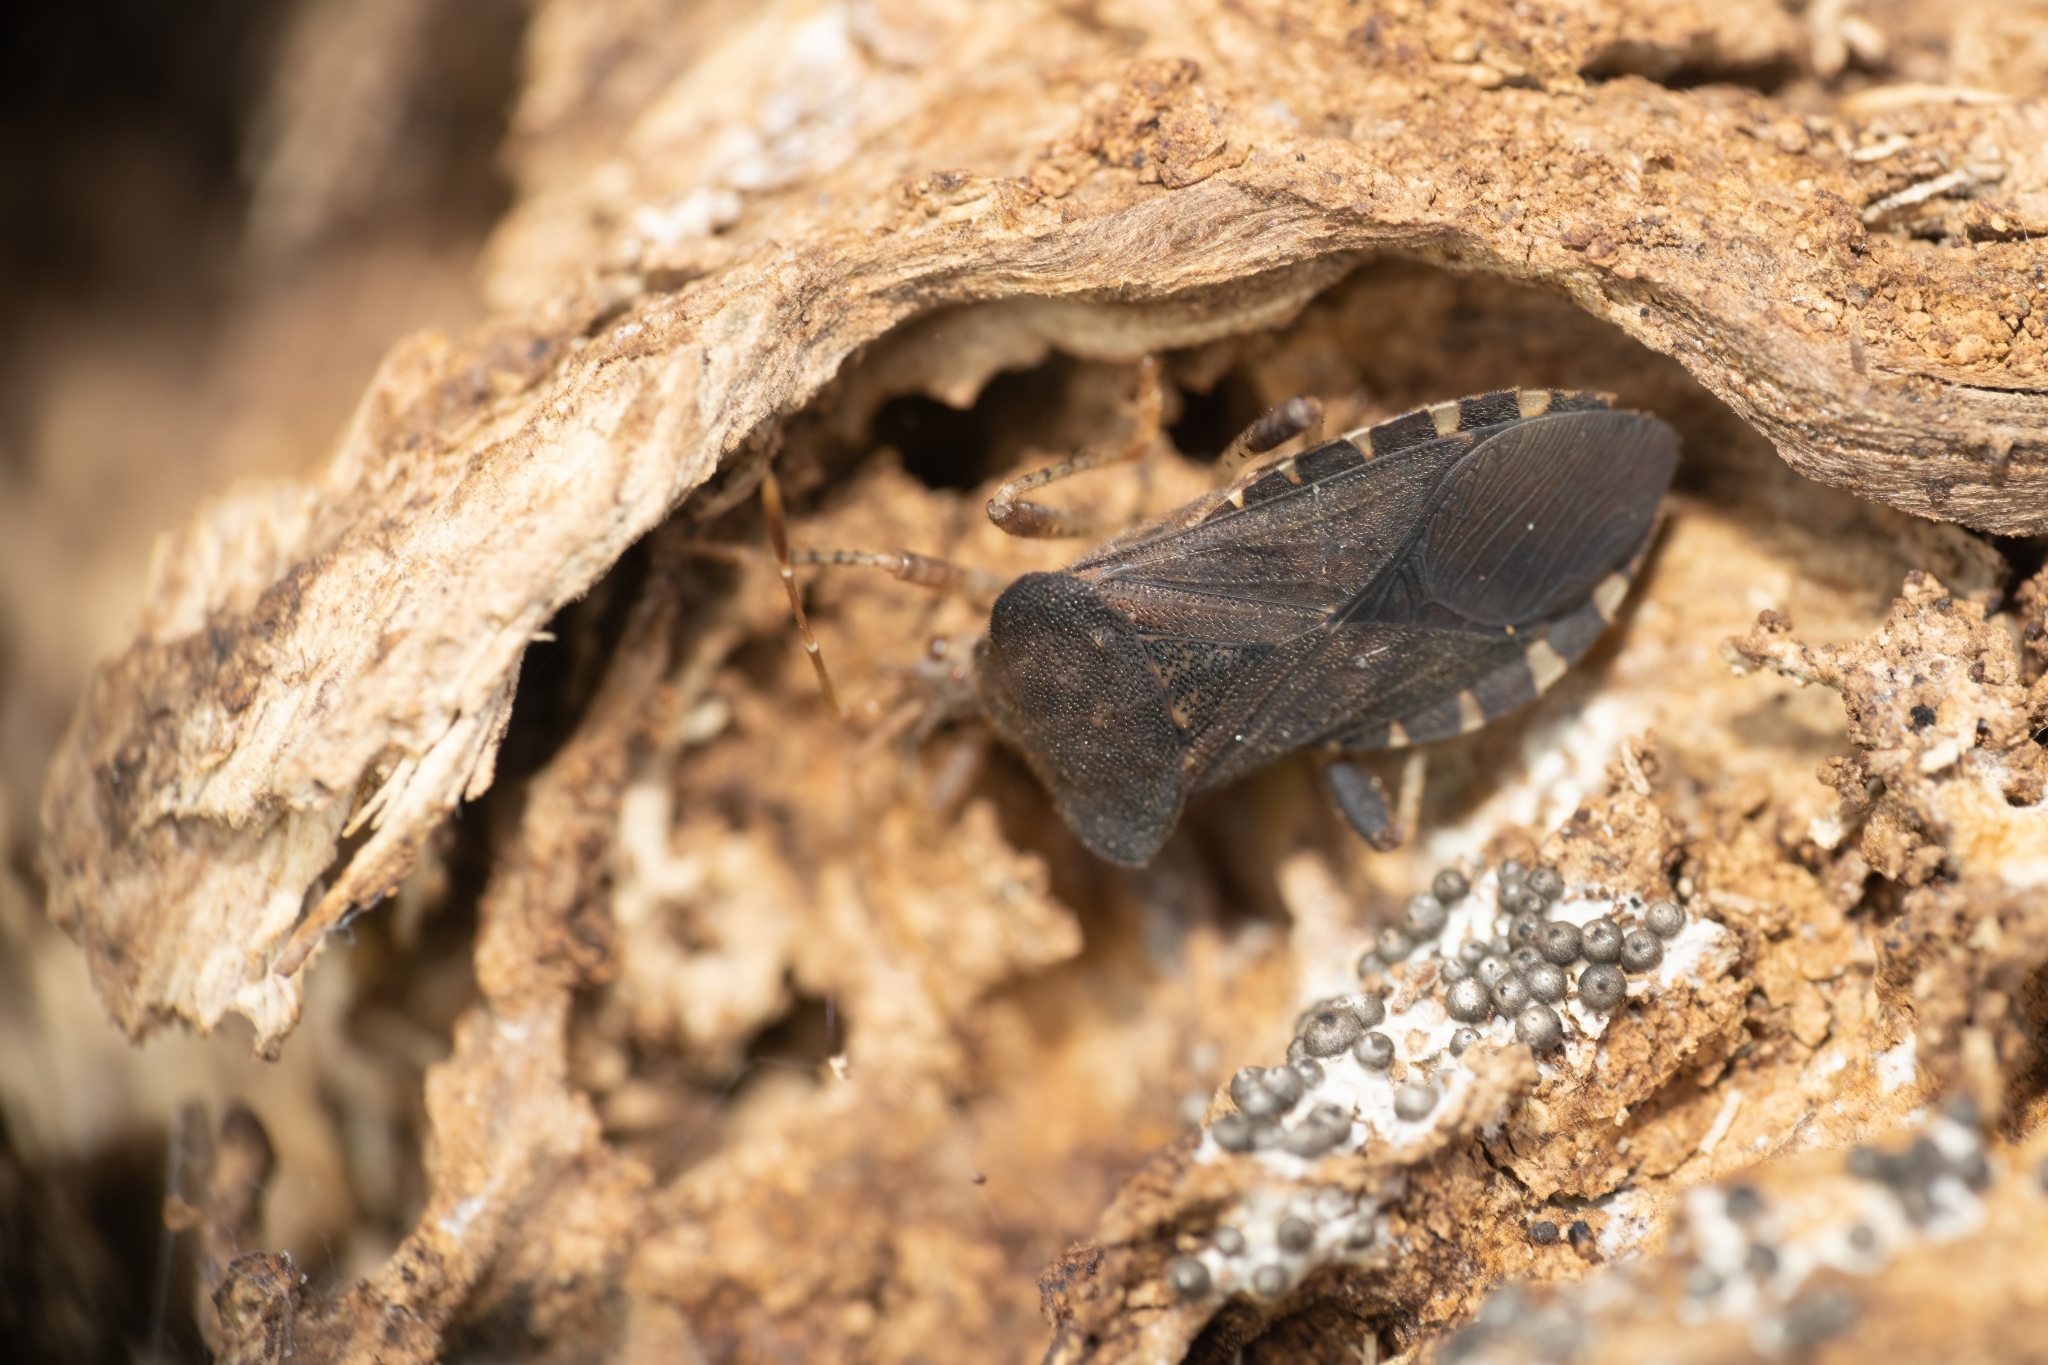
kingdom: Animalia
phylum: Arthropoda
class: Insecta
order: Hemiptera
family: Coreidae
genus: Anasa
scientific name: Anasa scorbutica
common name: Squash bug
